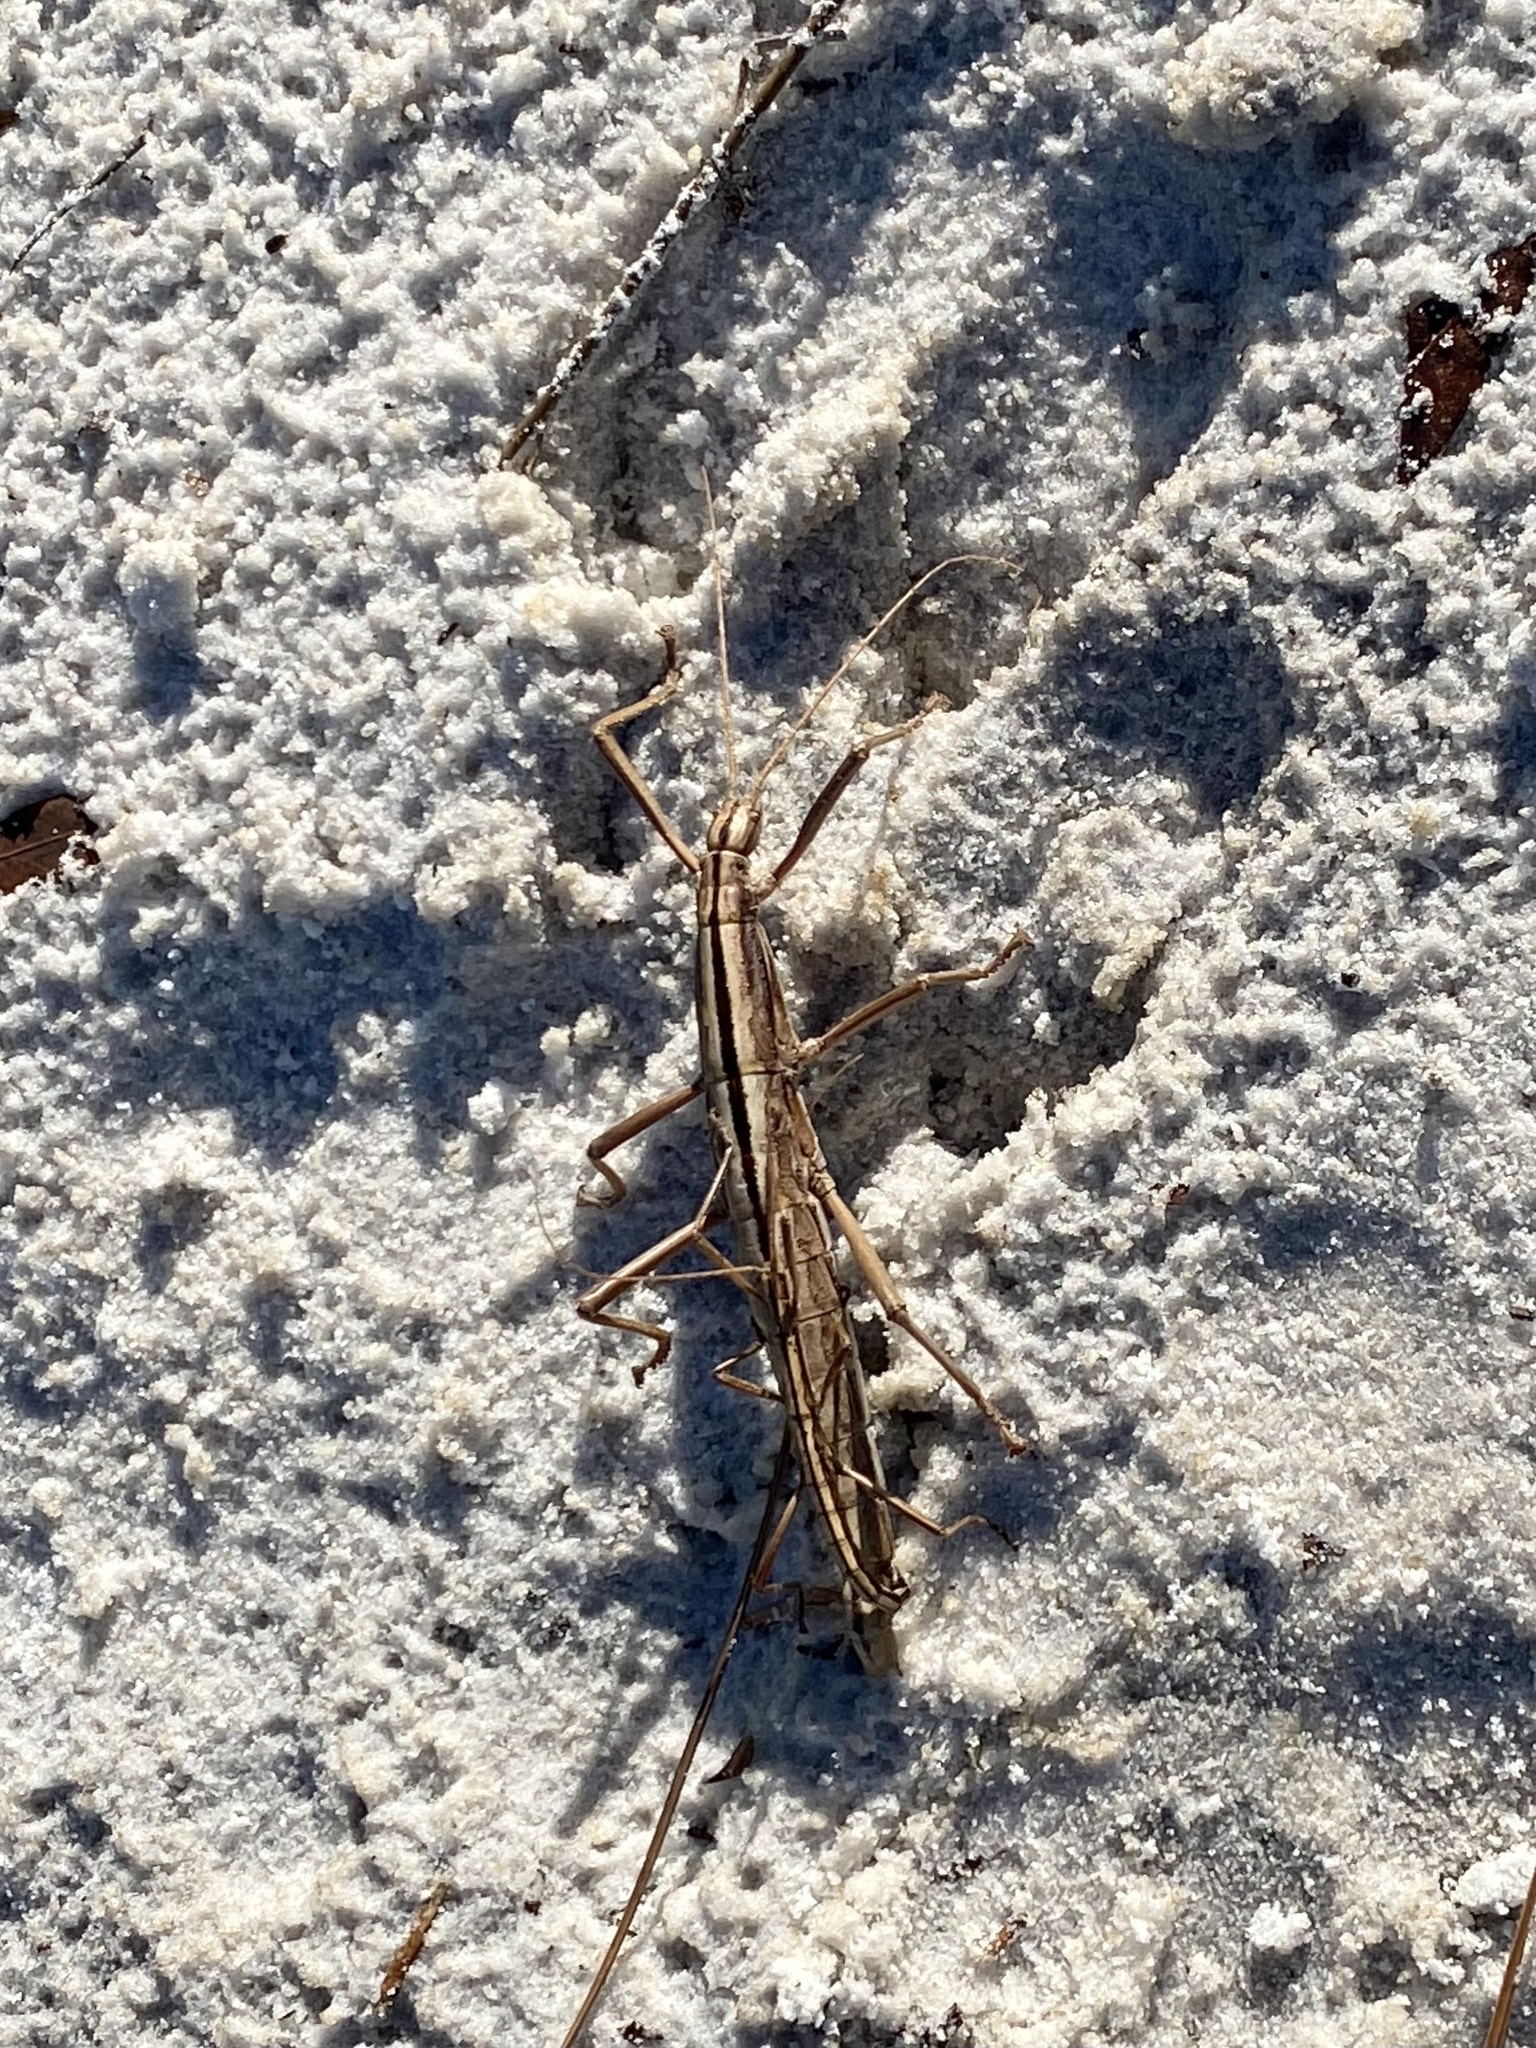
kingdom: Animalia
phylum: Arthropoda
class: Insecta
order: Phasmida
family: Pseudophasmatidae
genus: Anisomorpha
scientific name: Anisomorpha buprestoides
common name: Florida stick insect
